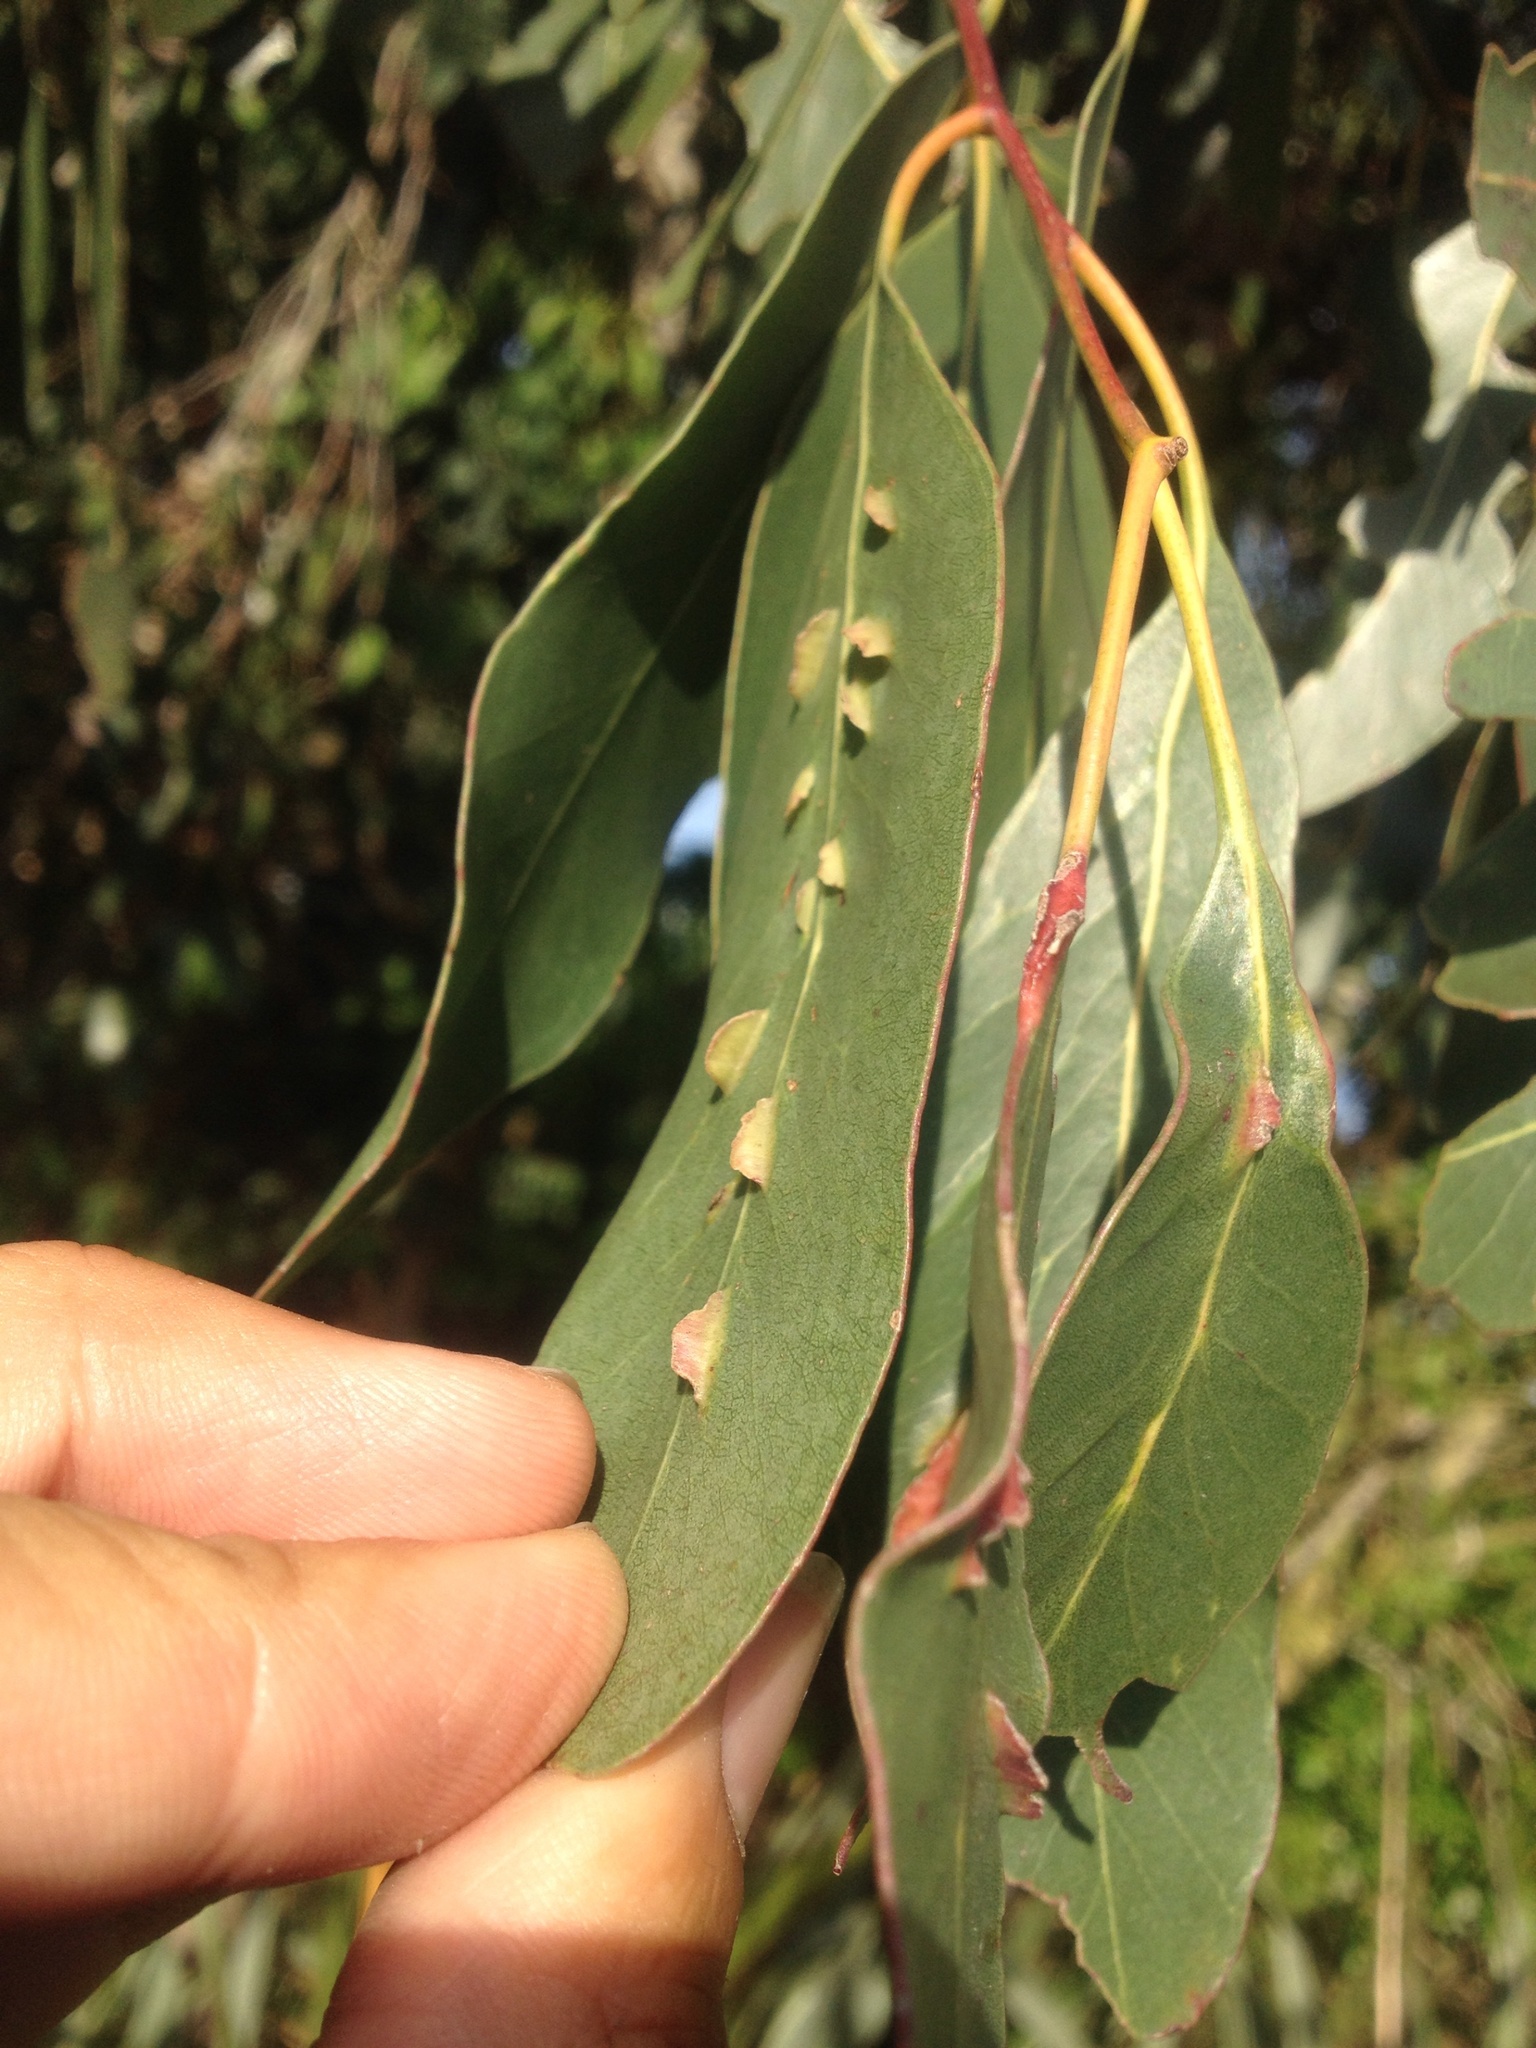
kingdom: Animalia
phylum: Arthropoda
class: Insecta
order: Hymenoptera
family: Pteromalidae
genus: Nambouria
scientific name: Nambouria xanthops
